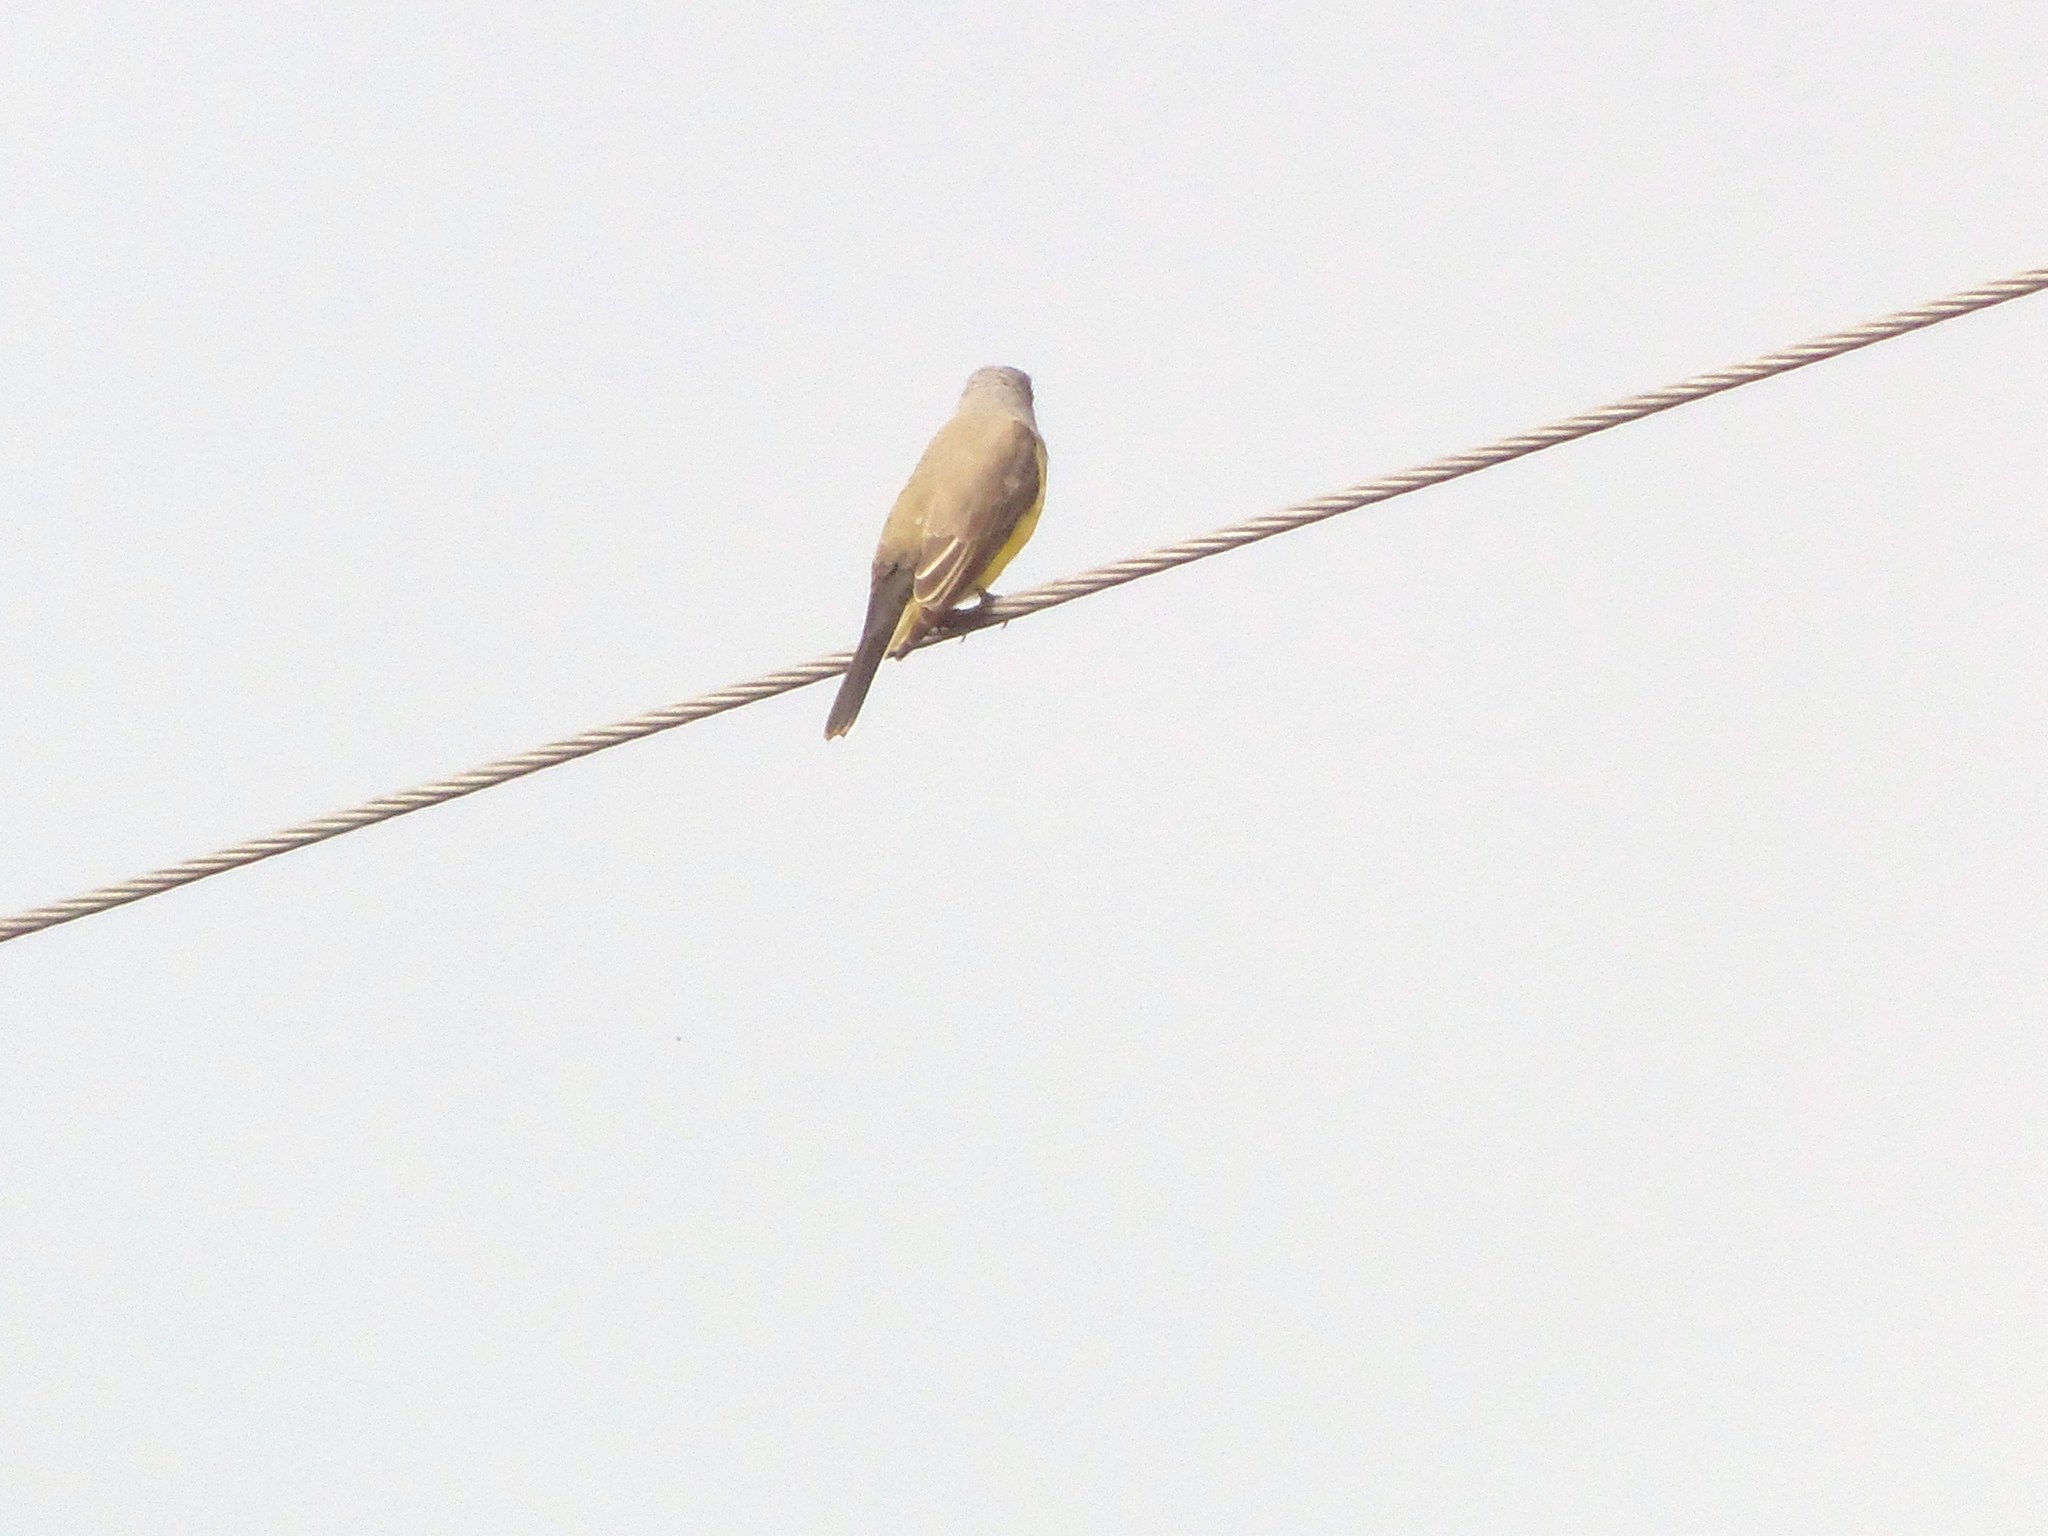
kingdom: Animalia
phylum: Chordata
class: Aves
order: Passeriformes
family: Tyrannidae
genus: Tyrannus
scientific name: Tyrannus verticalis
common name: Western kingbird
